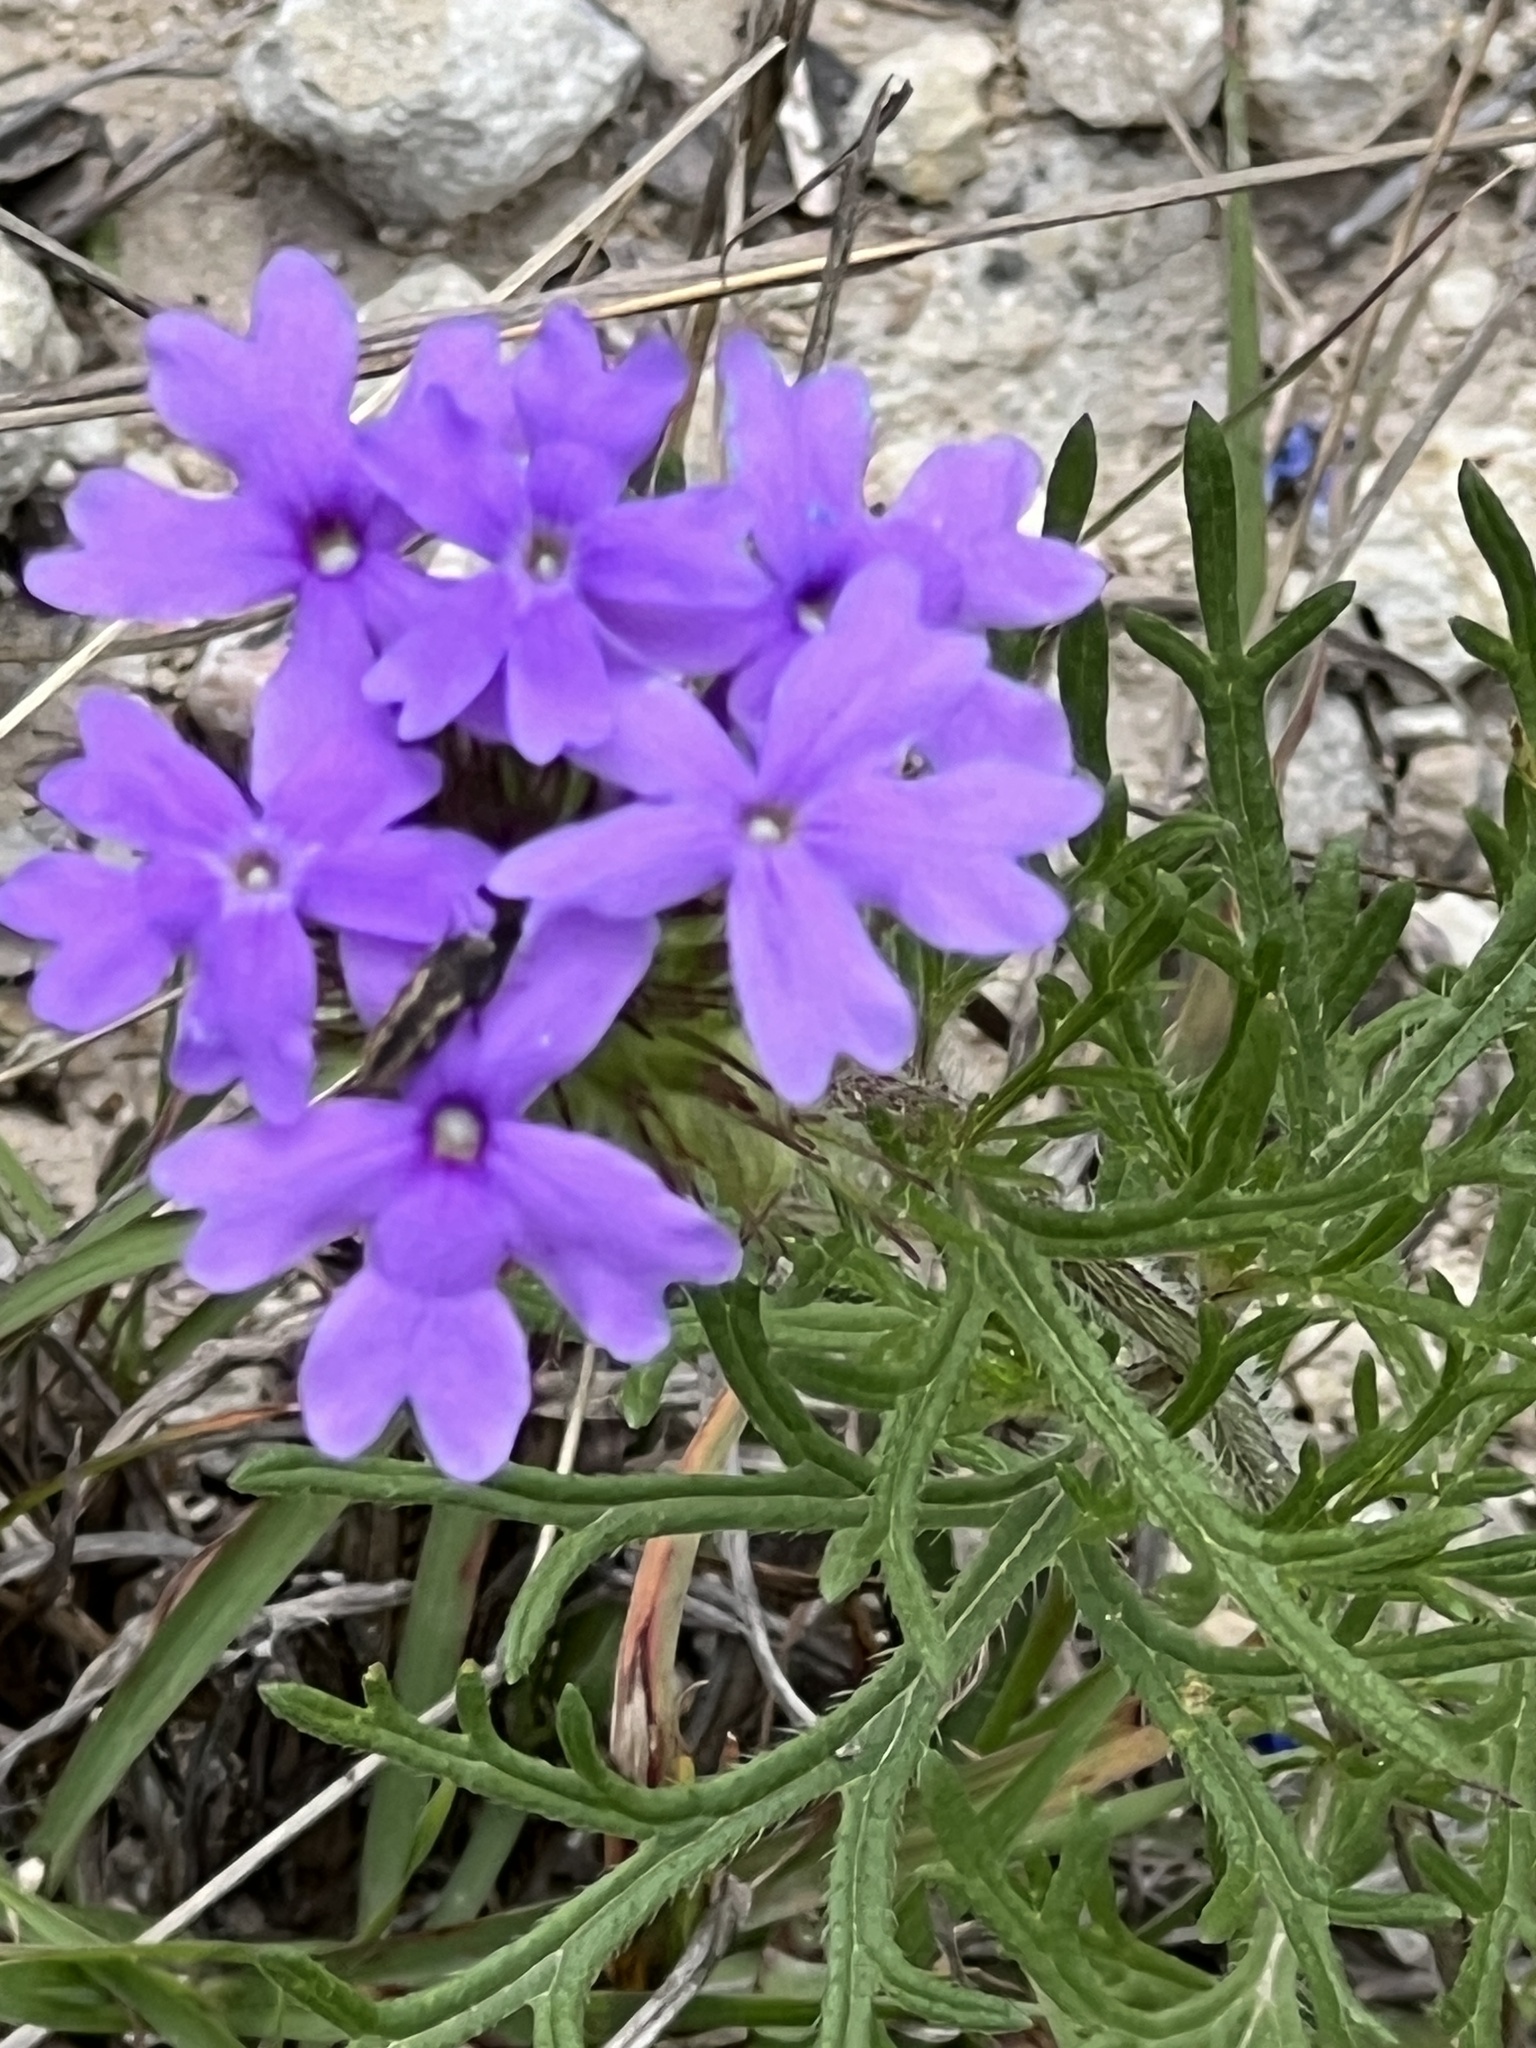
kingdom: Plantae
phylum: Tracheophyta
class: Magnoliopsida
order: Lamiales
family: Verbenaceae
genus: Verbena
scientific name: Verbena bipinnatifida
